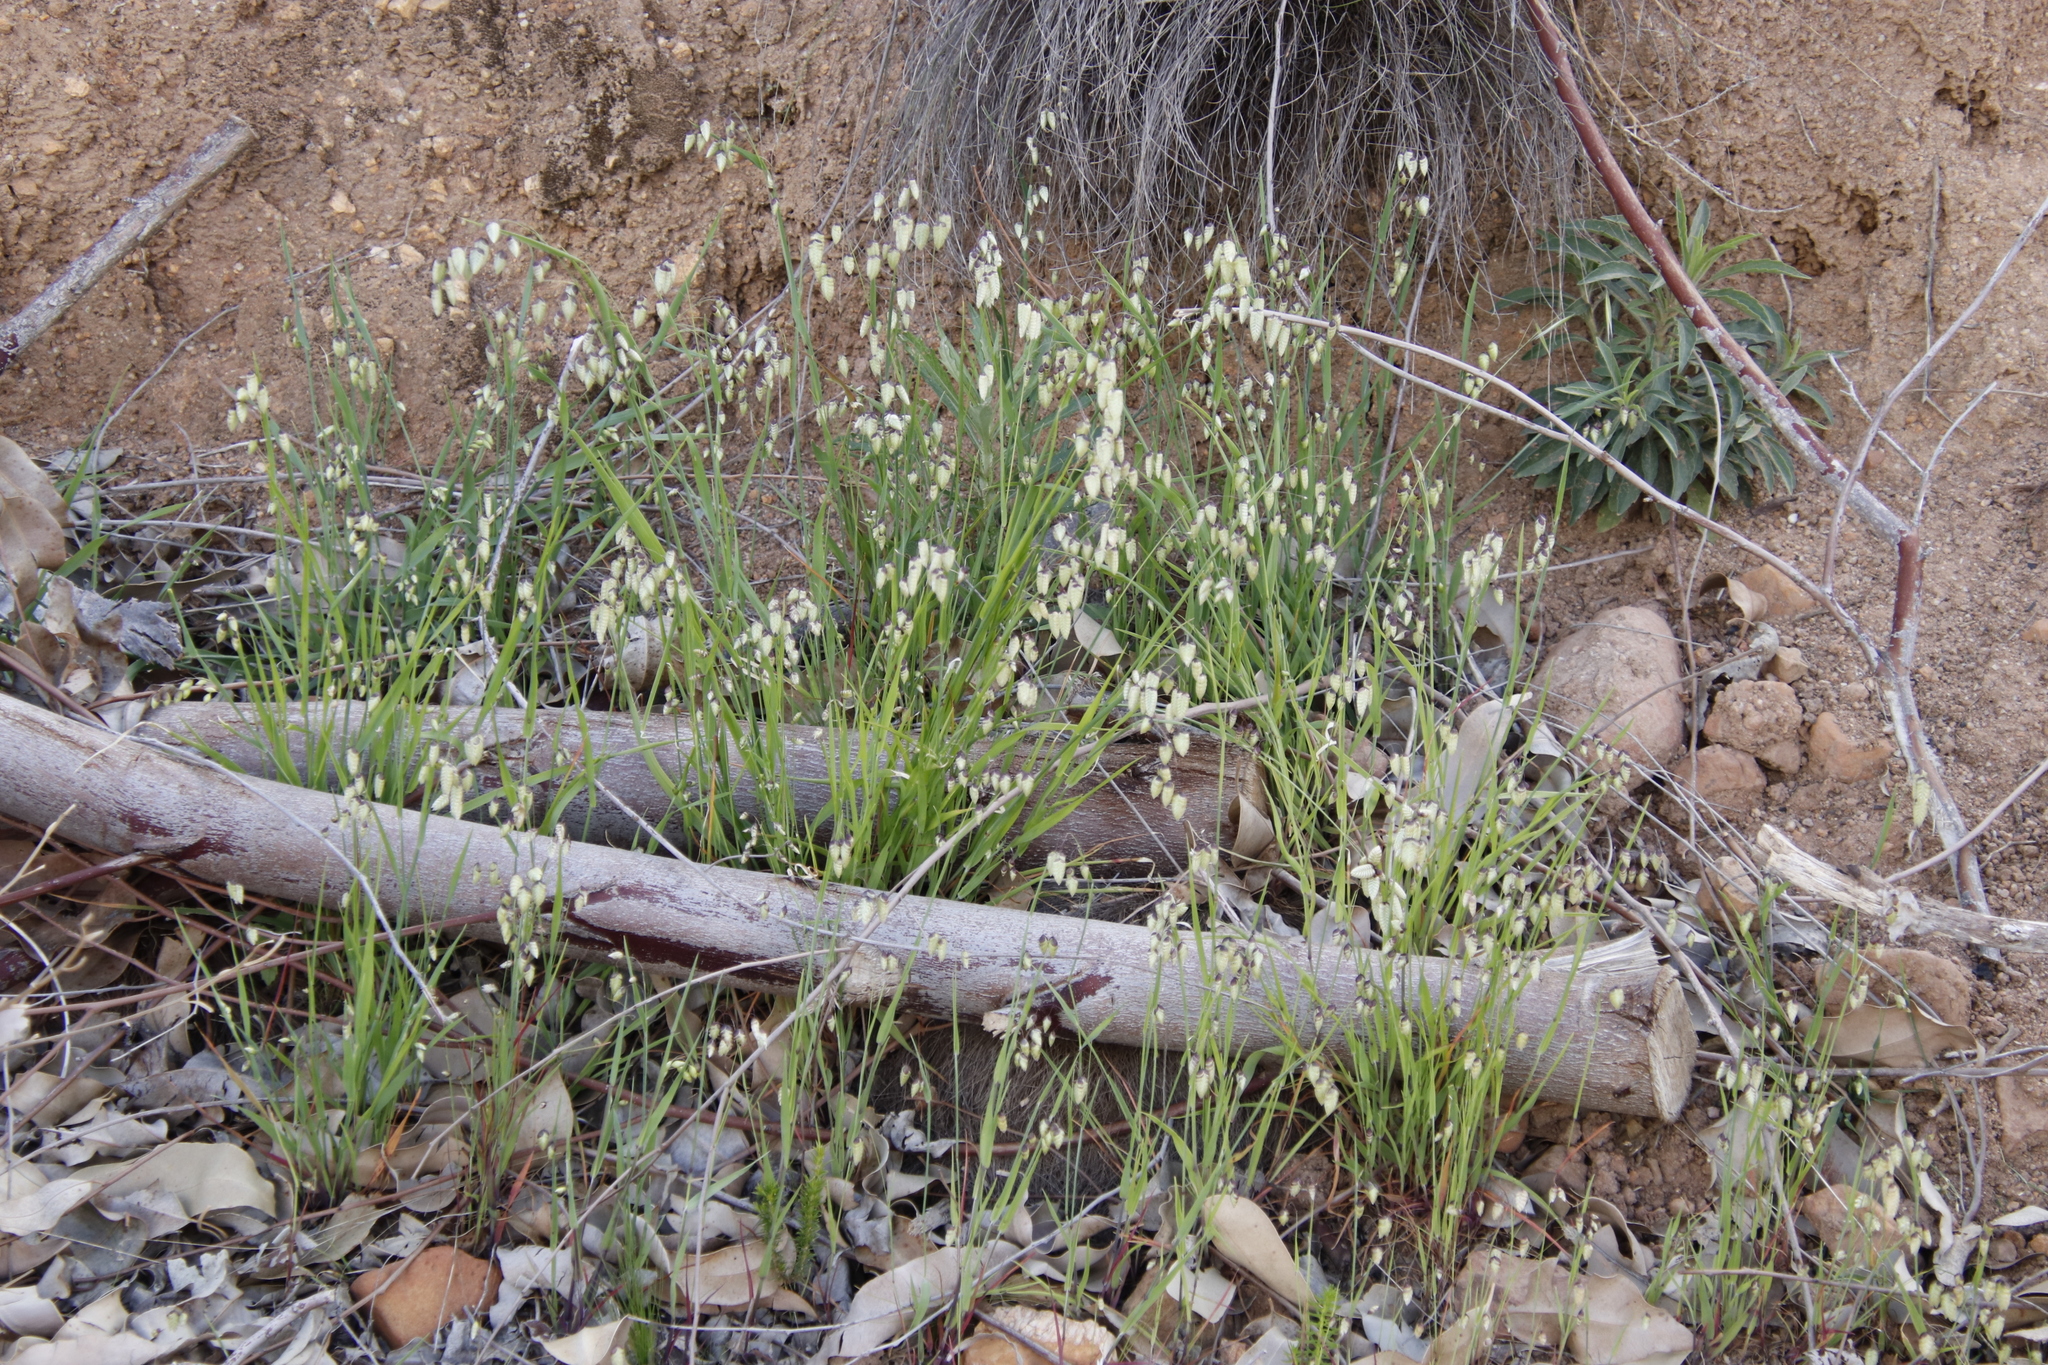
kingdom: Plantae
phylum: Tracheophyta
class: Liliopsida
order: Poales
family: Poaceae
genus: Briza
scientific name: Briza maxima
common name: Big quakinggrass
